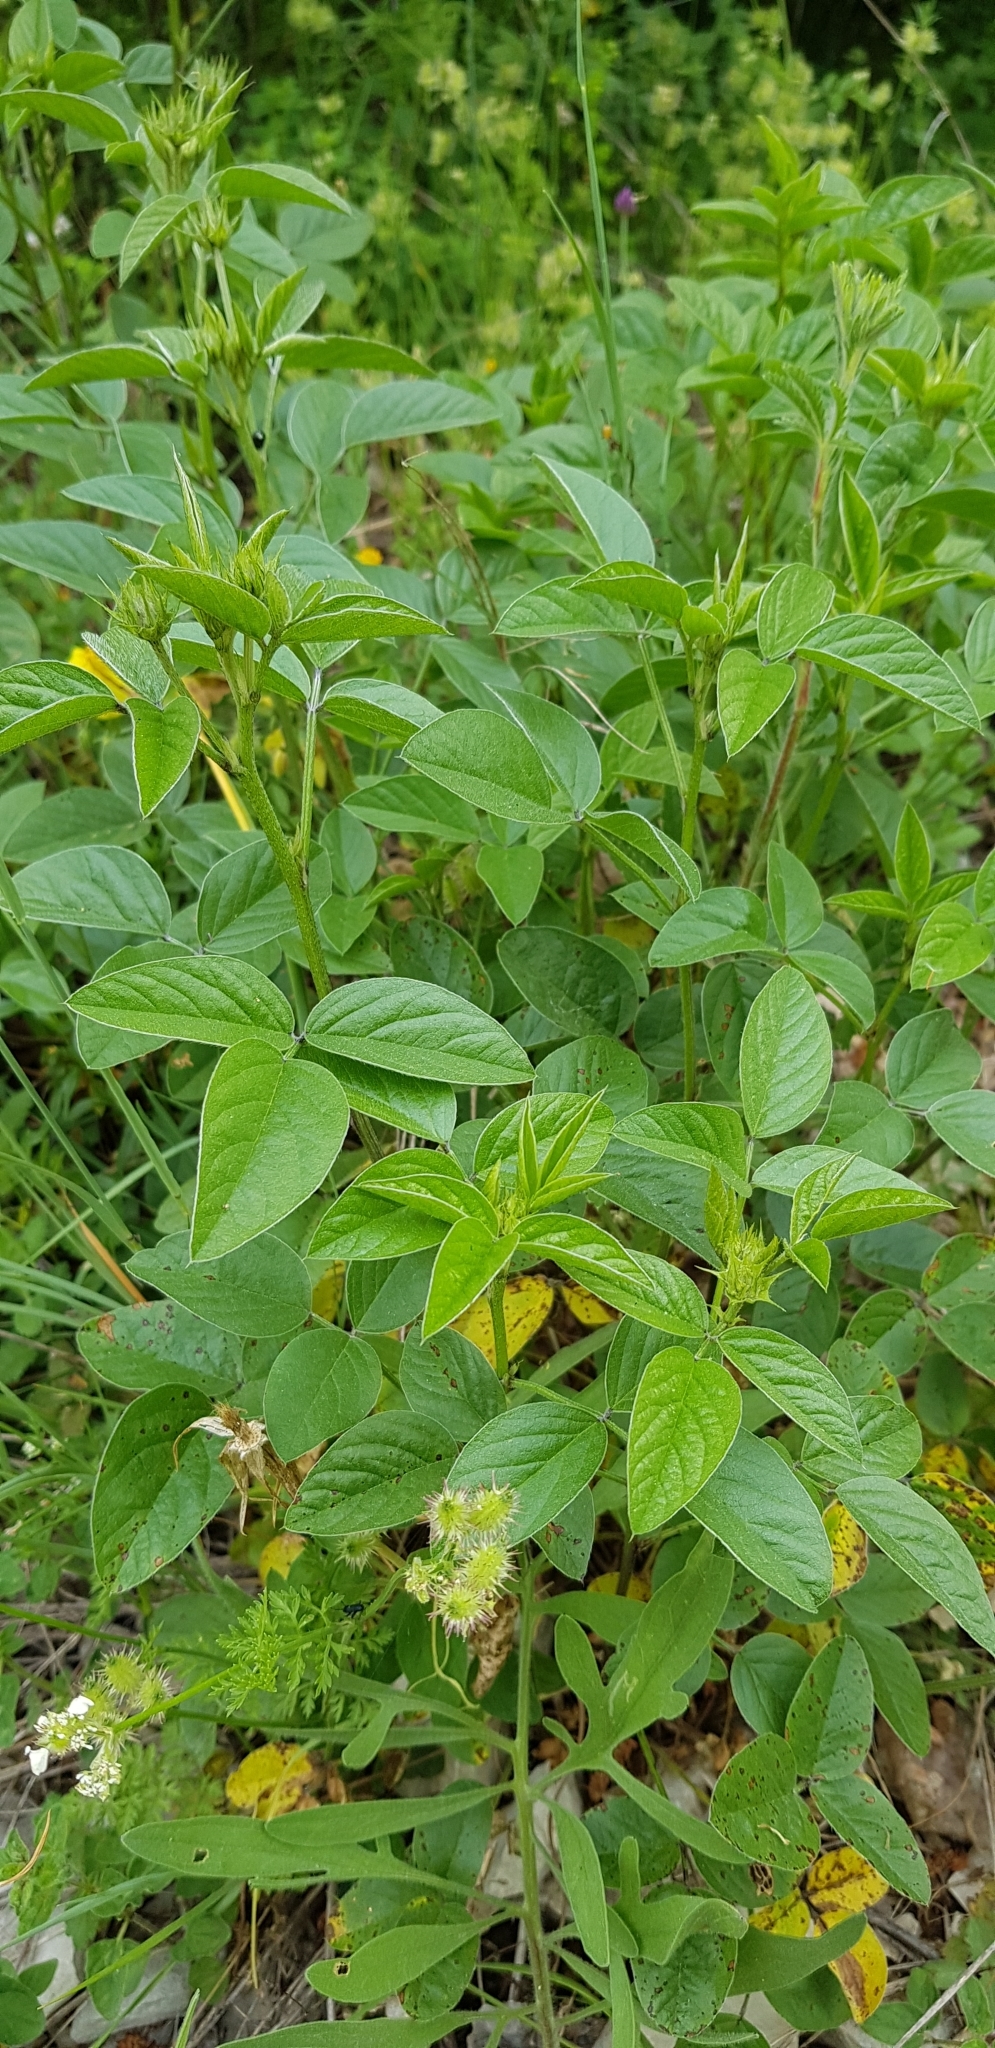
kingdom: Plantae
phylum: Tracheophyta
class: Magnoliopsida
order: Fabales
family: Fabaceae
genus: Bituminaria
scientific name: Bituminaria bituminosa
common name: Arabian pea
